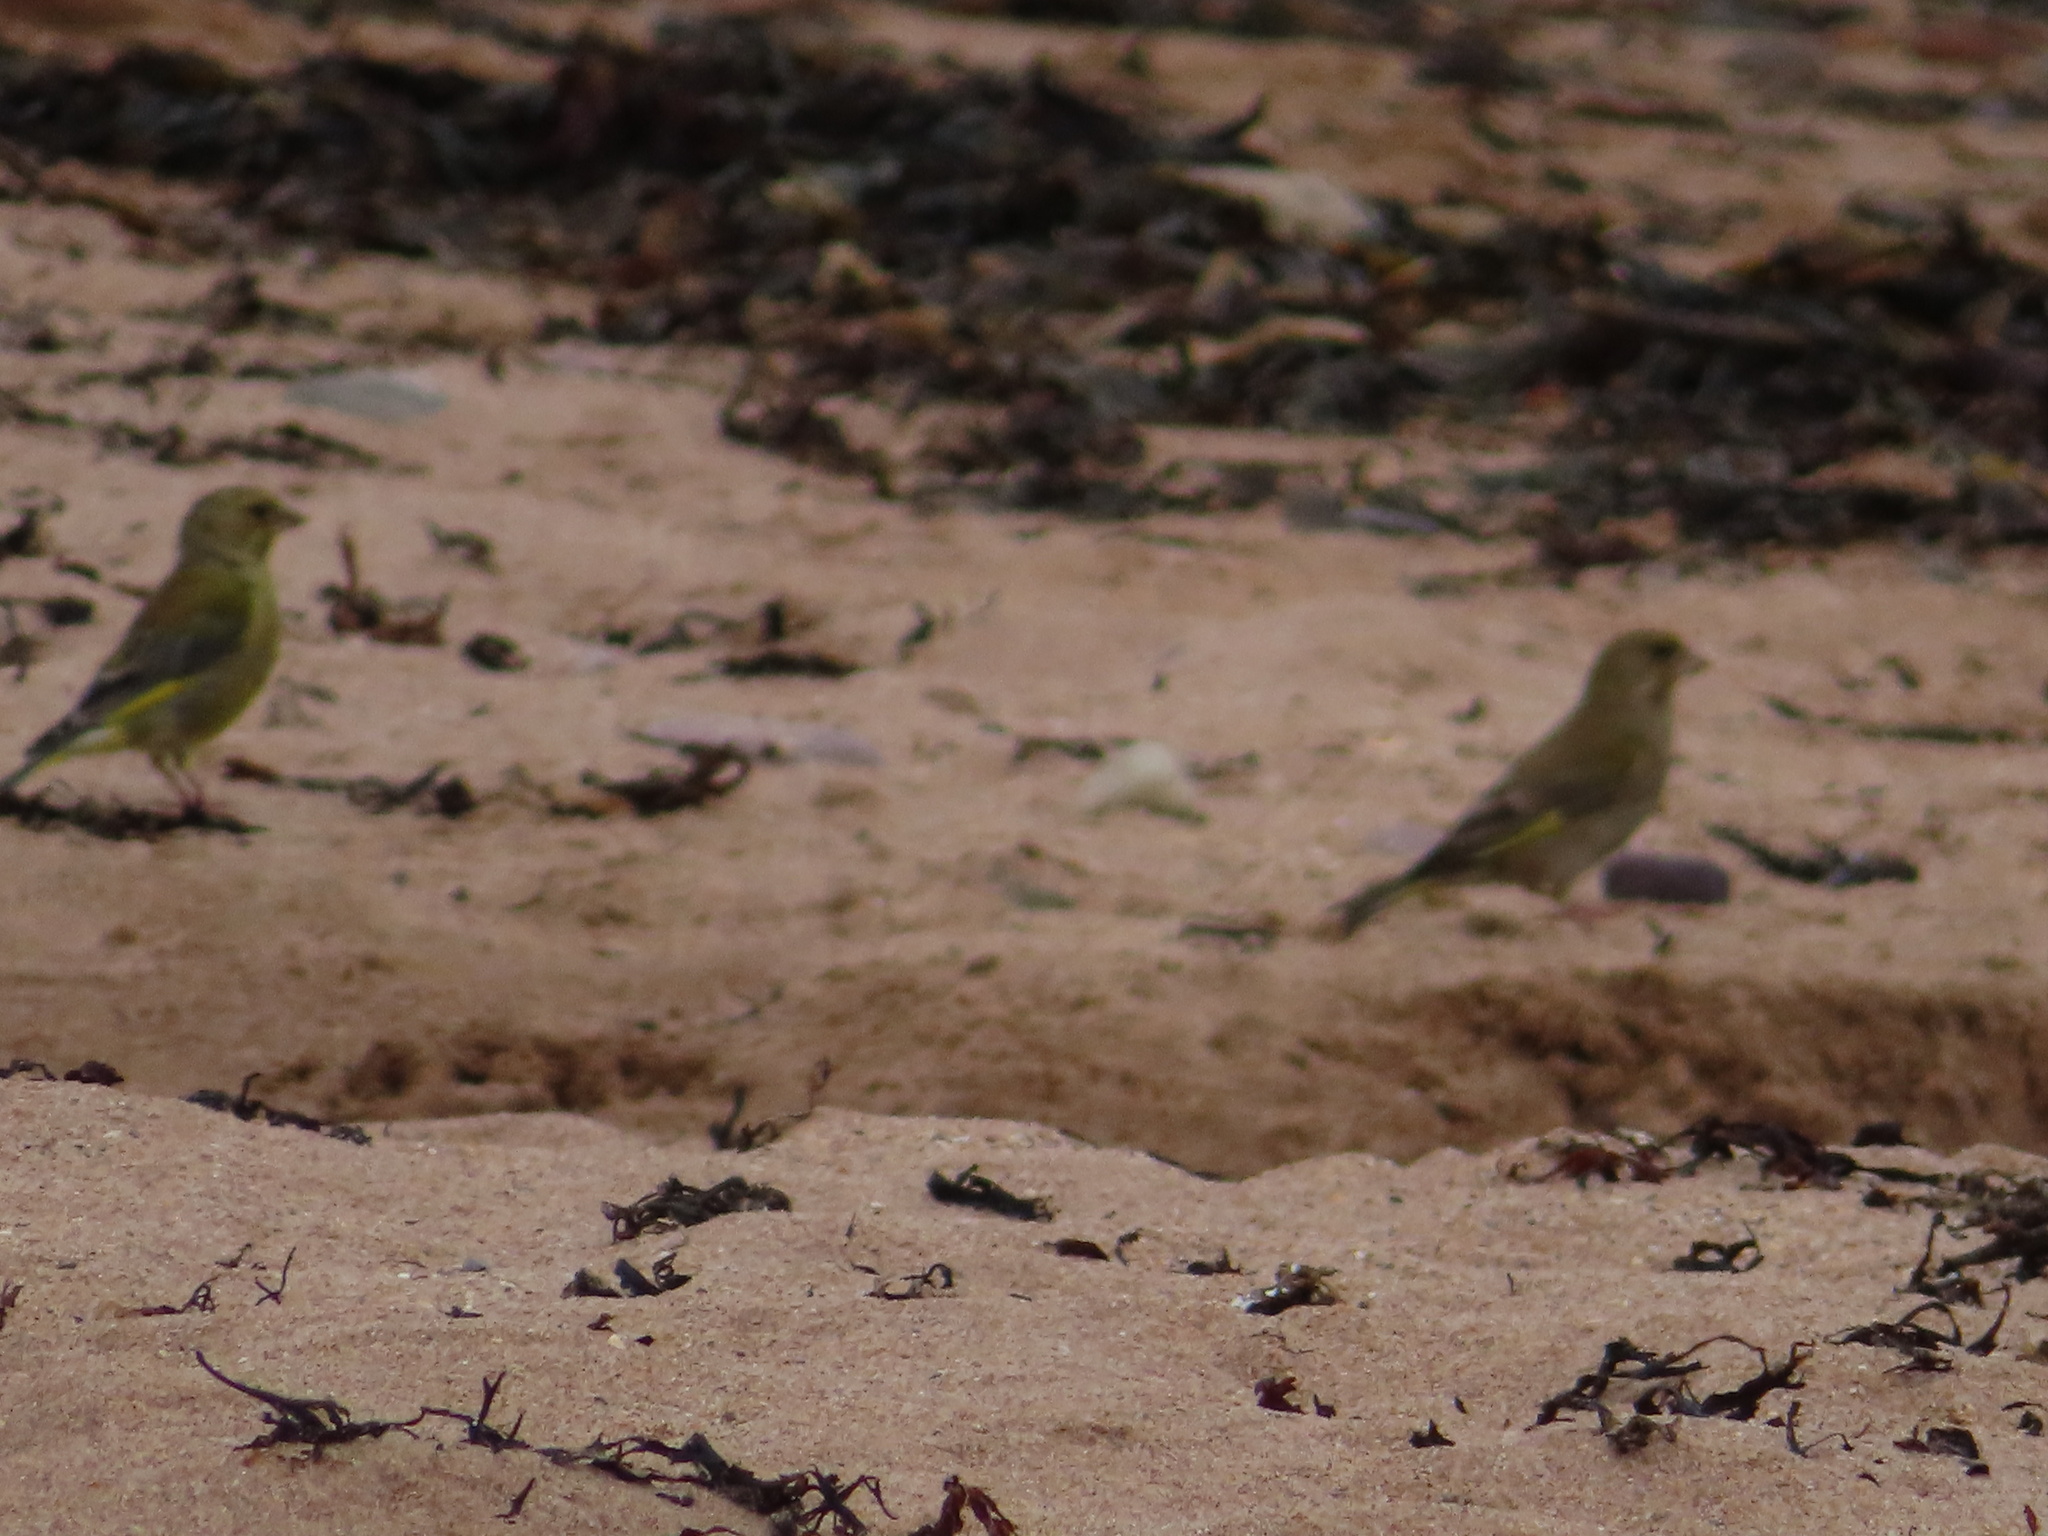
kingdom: Plantae
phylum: Tracheophyta
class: Liliopsida
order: Poales
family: Poaceae
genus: Chloris
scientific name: Chloris chloris
